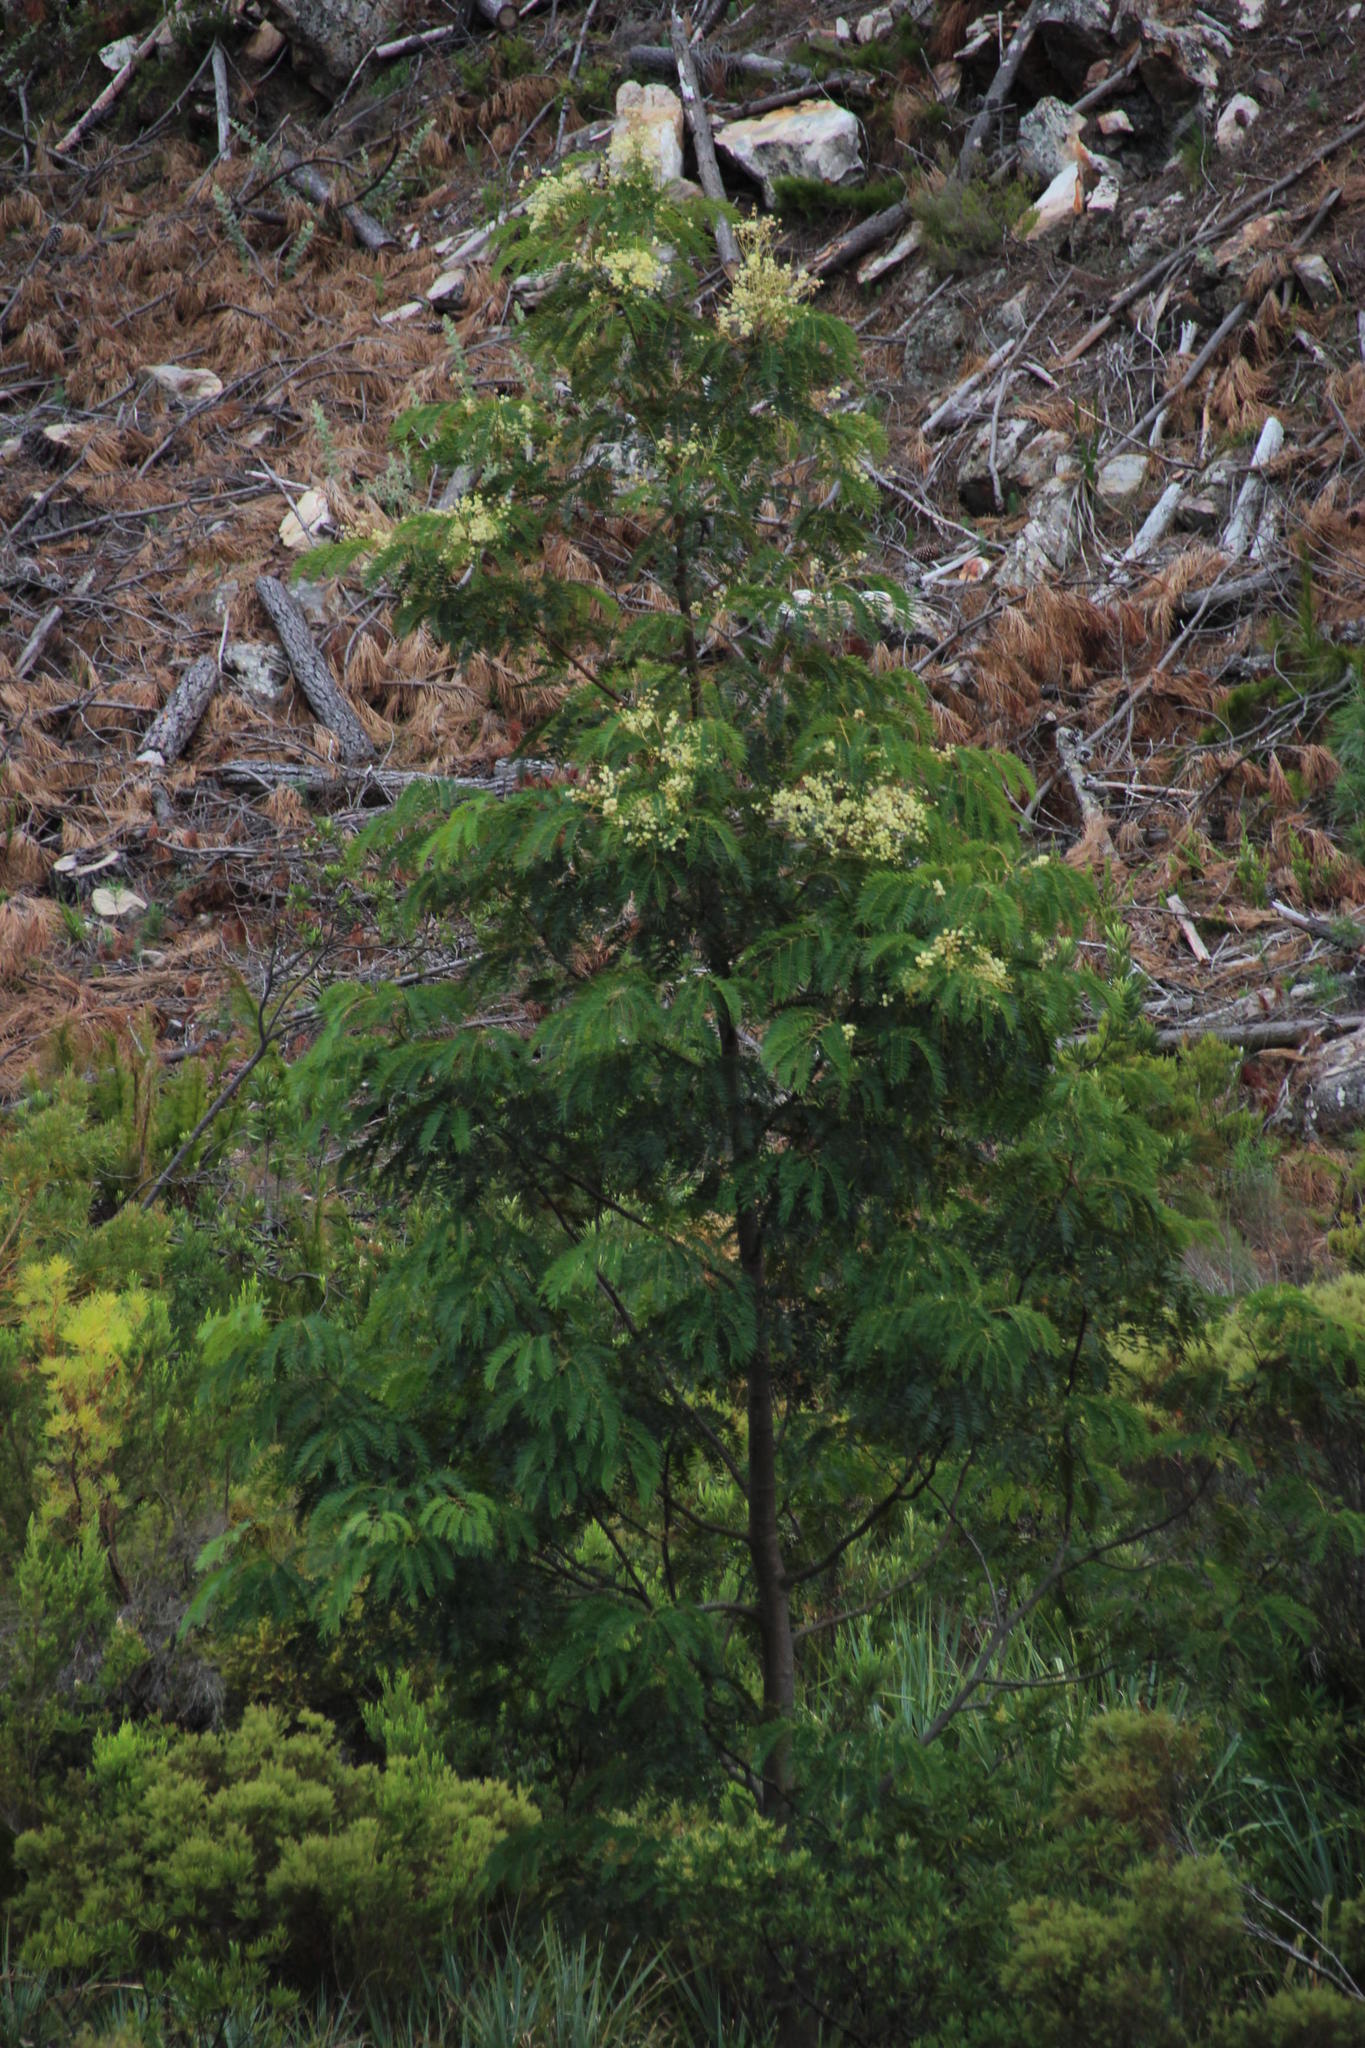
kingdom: Plantae
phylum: Tracheophyta
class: Magnoliopsida
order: Fabales
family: Fabaceae
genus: Acacia
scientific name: Acacia elata
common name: Cedar wattle
